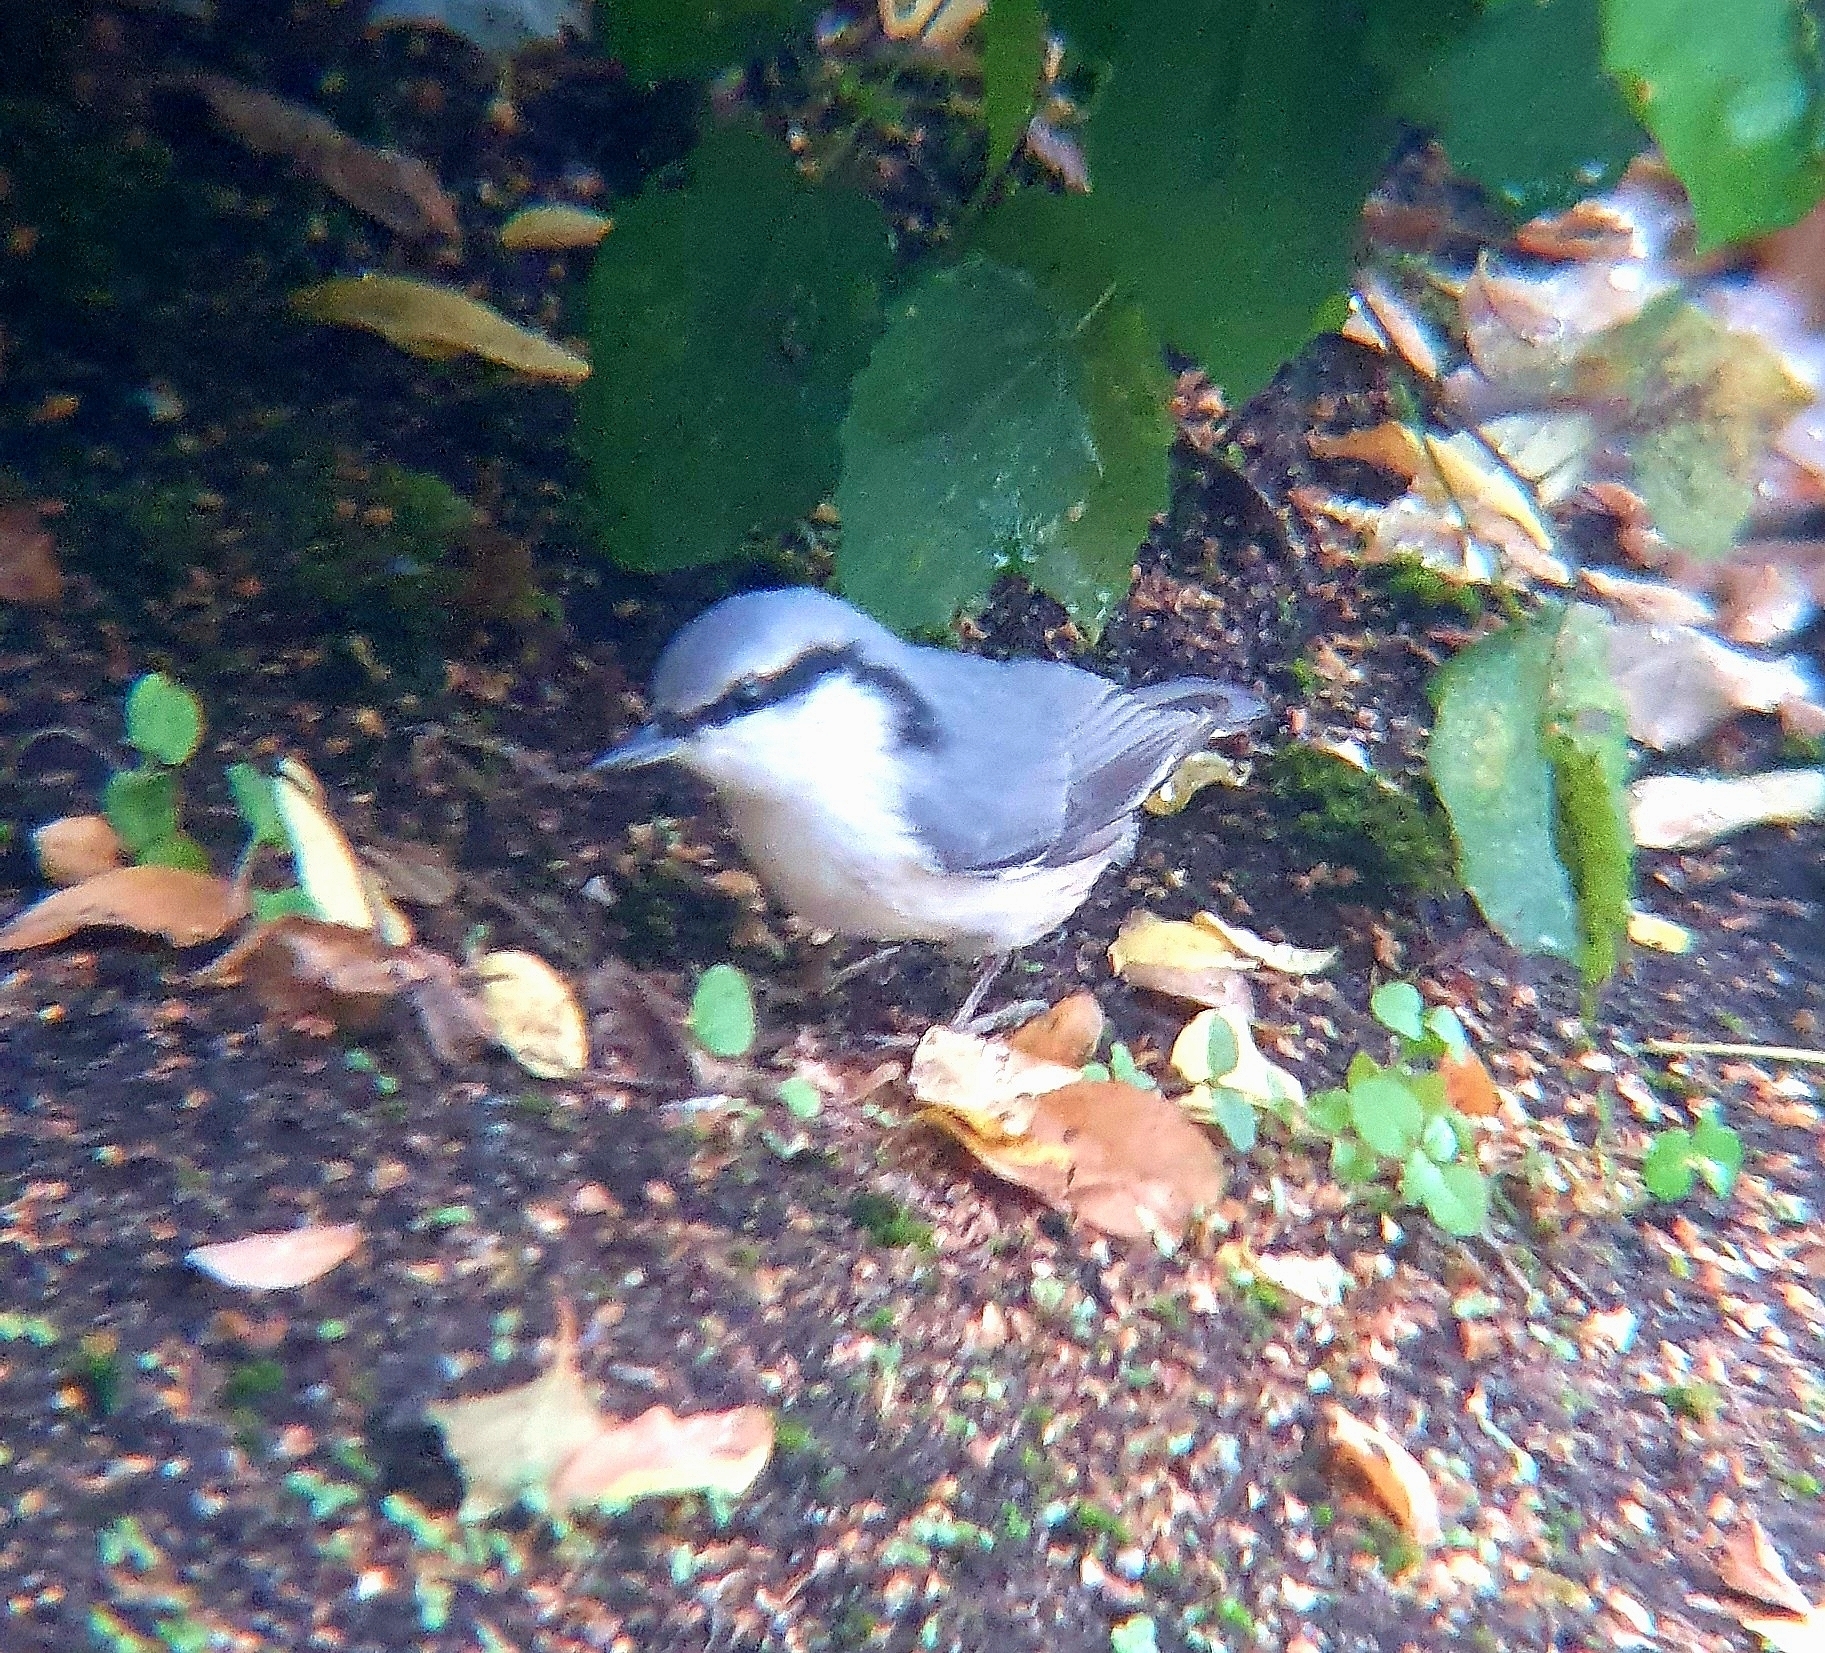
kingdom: Animalia
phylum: Chordata
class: Aves
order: Passeriformes
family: Sittidae
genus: Sitta
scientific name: Sitta europaea
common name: Eurasian nuthatch
